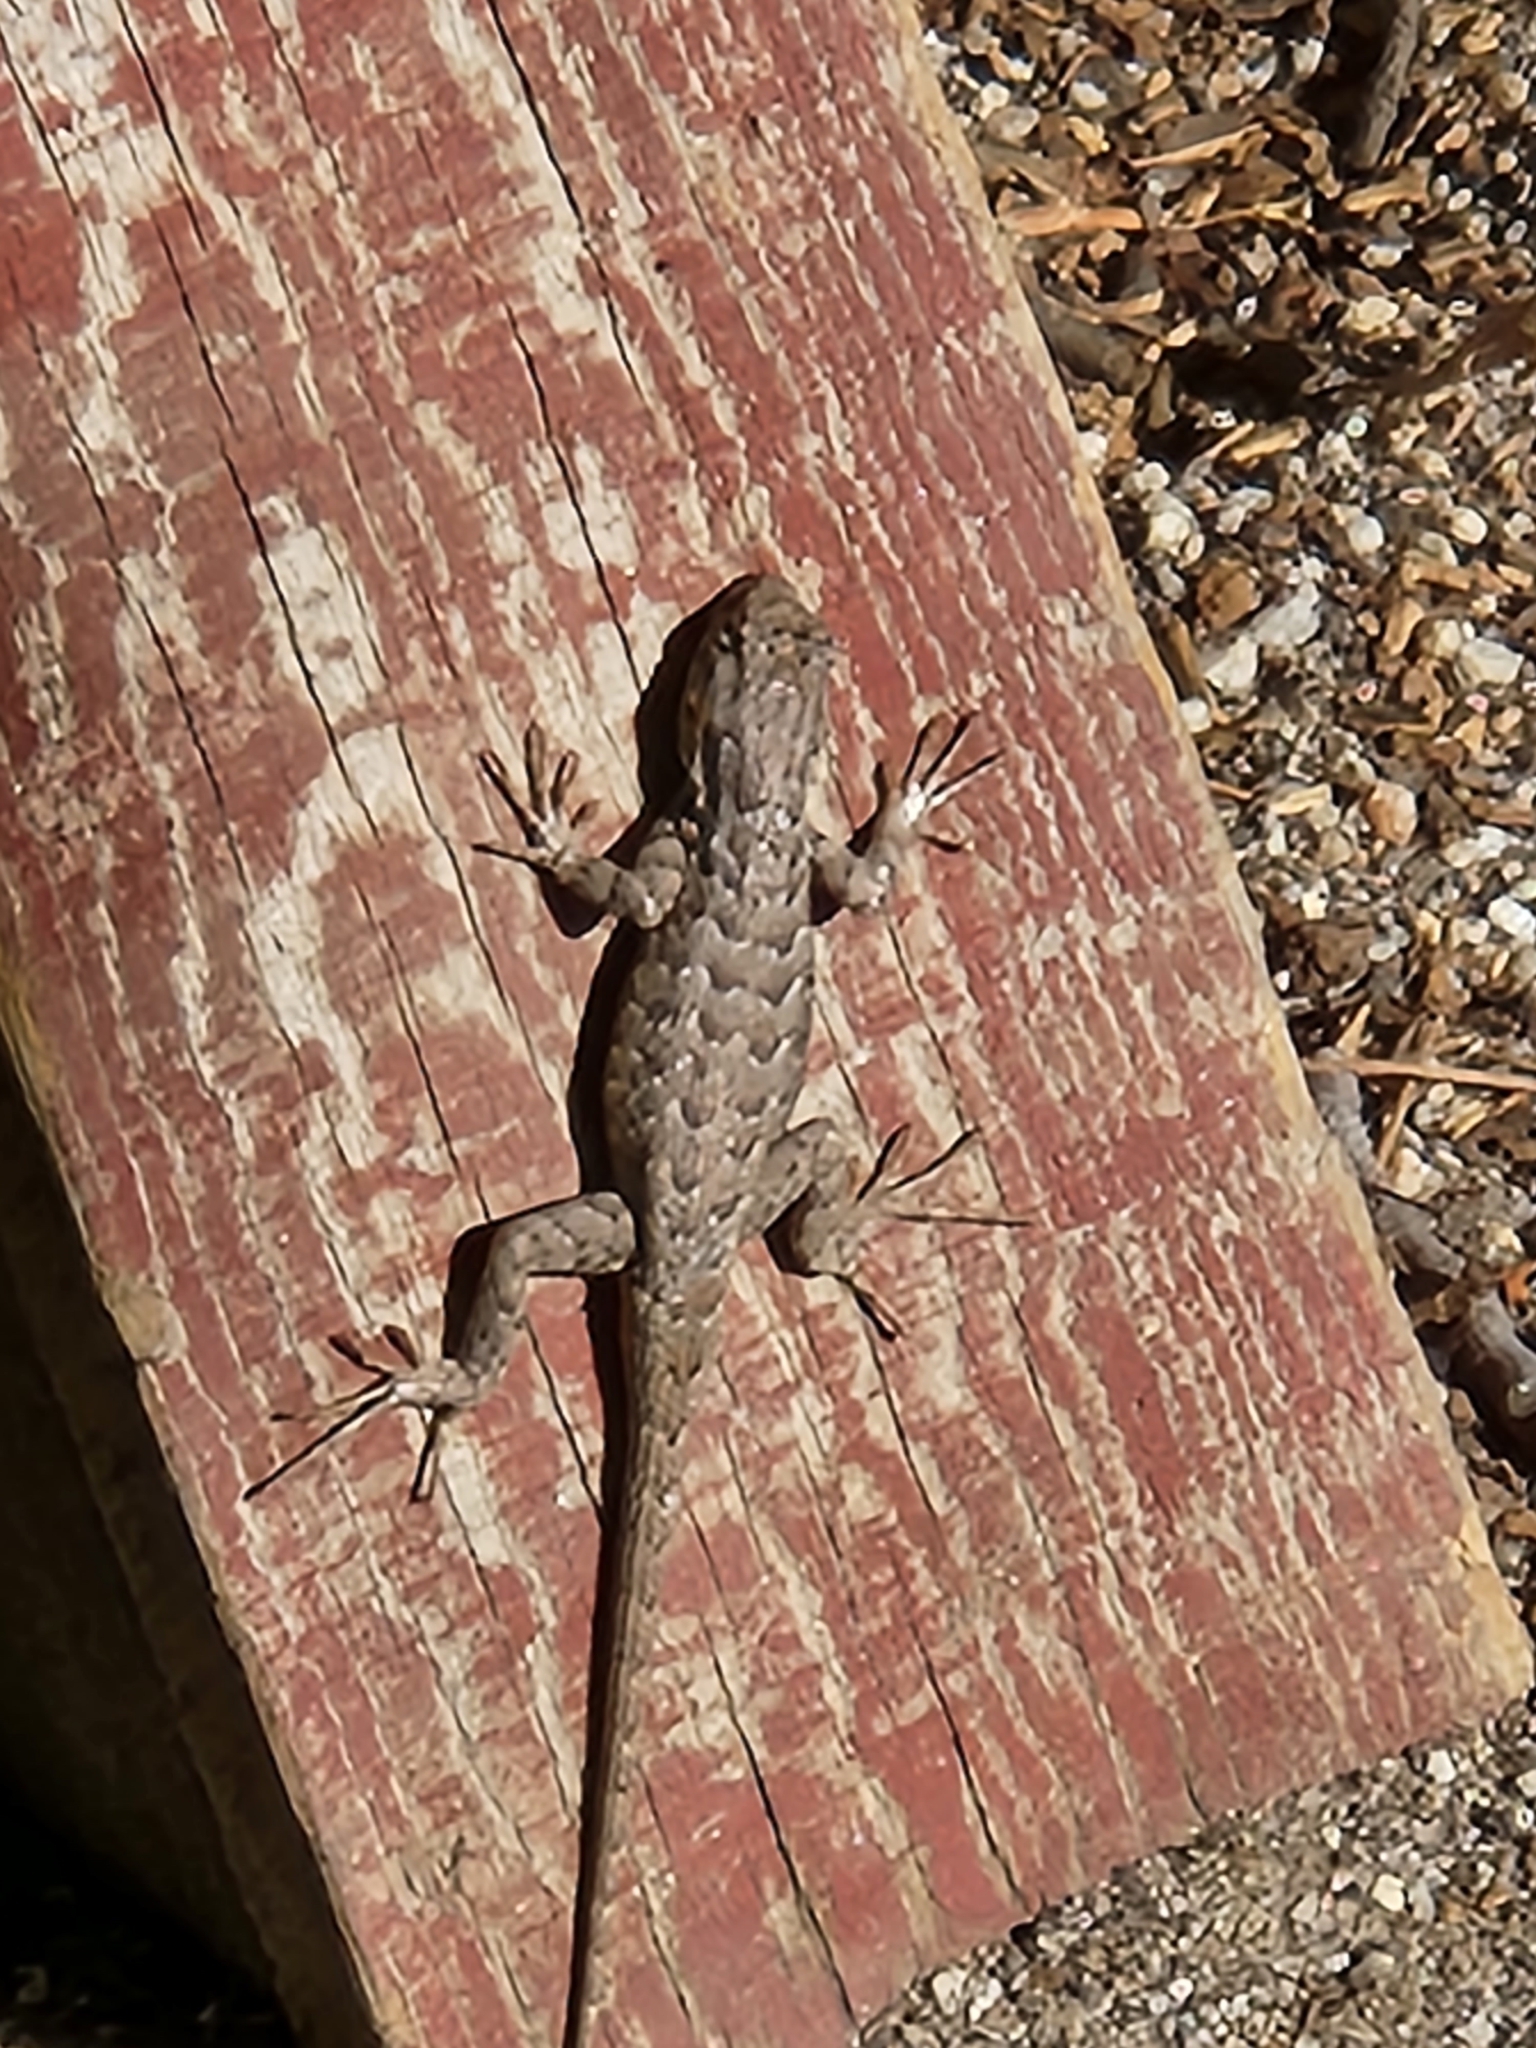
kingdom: Animalia
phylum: Chordata
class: Squamata
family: Phrynosomatidae
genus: Sceloporus
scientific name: Sceloporus occidentalis
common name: Western fence lizard
